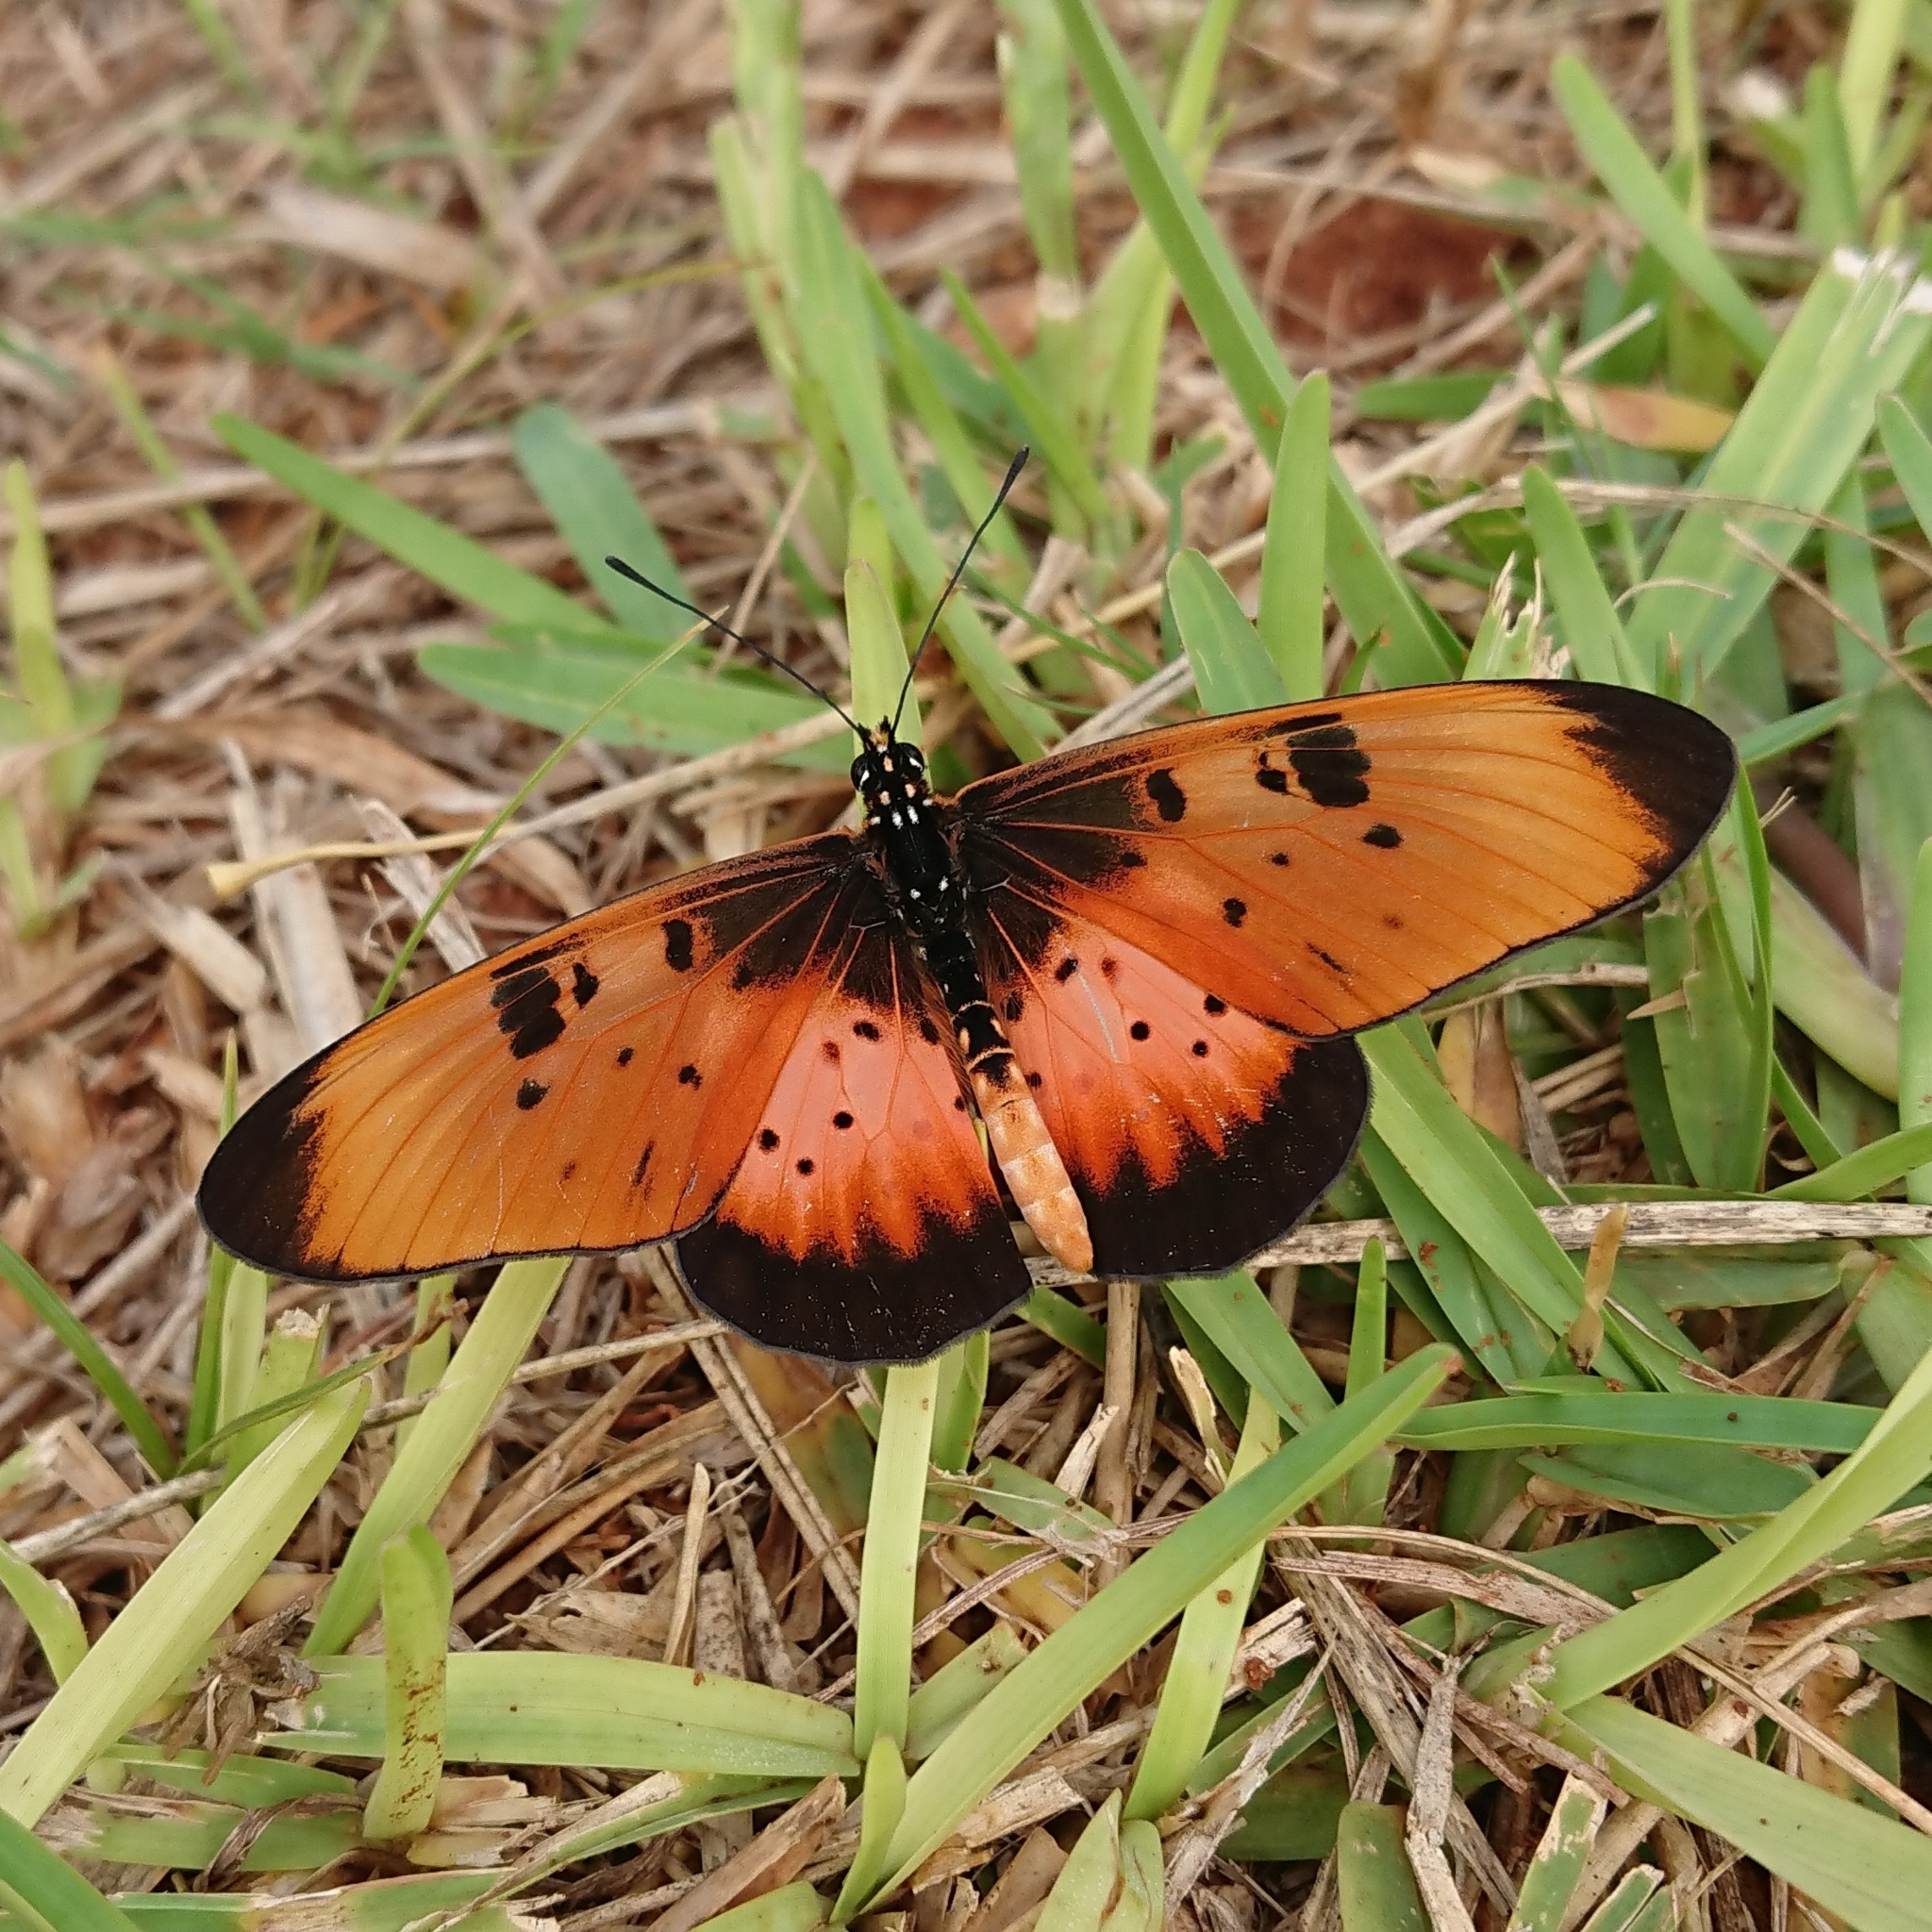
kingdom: Animalia
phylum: Arthropoda
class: Insecta
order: Lepidoptera
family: Nymphalidae
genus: Stephenia
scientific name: Stephenia
